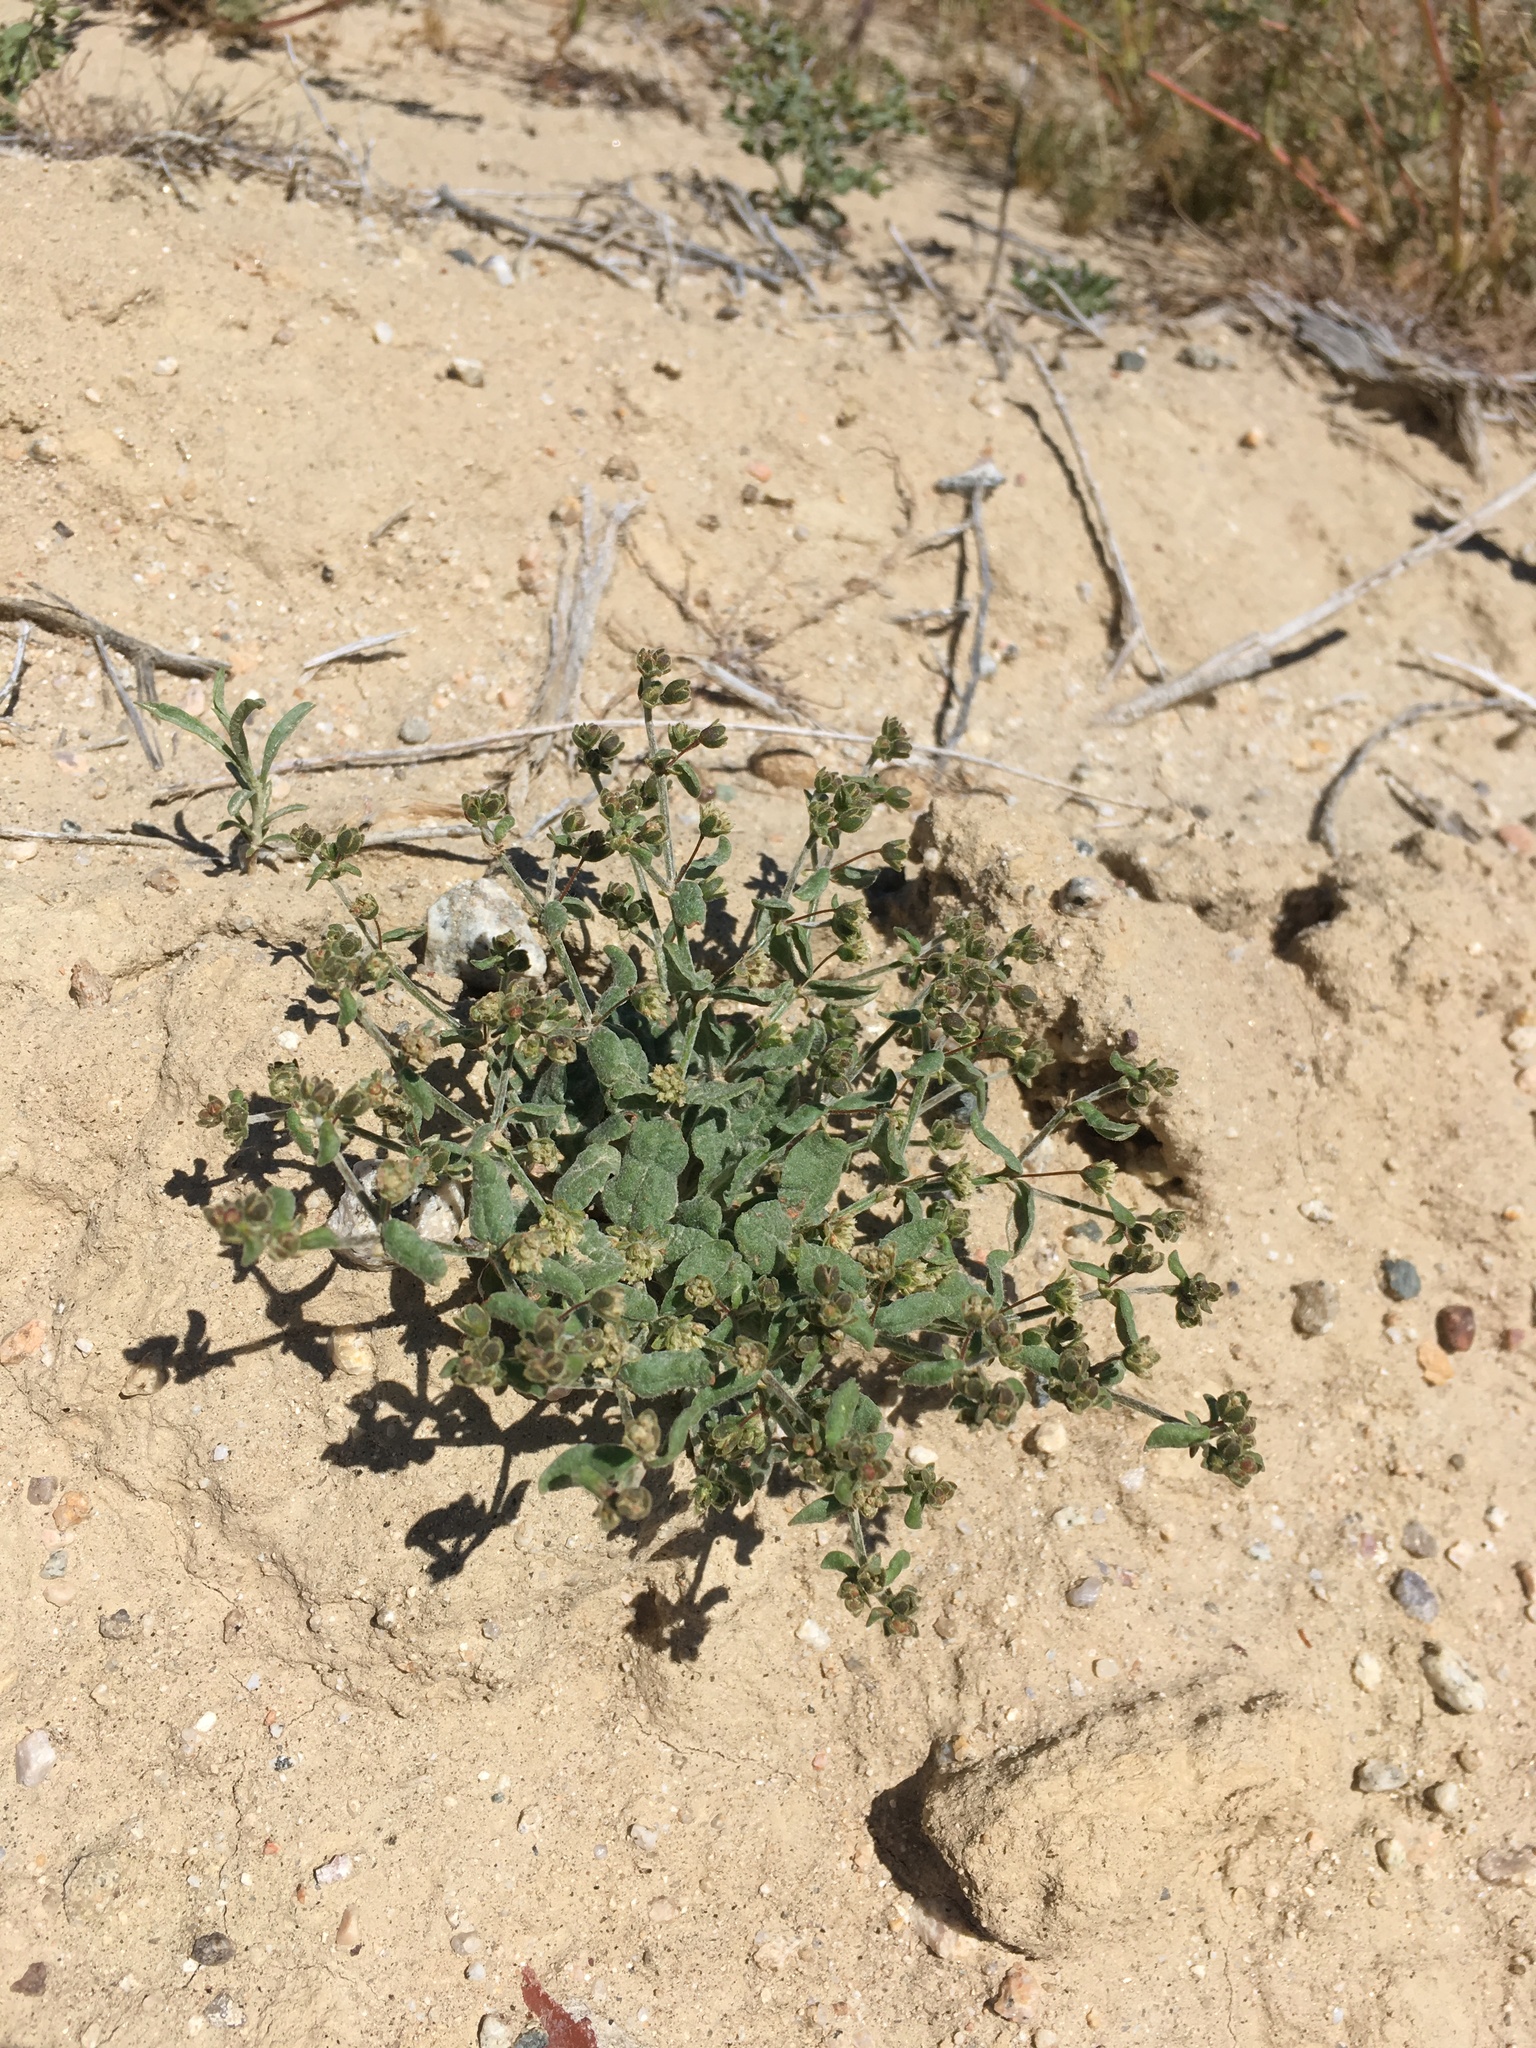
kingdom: Plantae
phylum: Tracheophyta
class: Magnoliopsida
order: Caryophyllales
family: Polygonaceae
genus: Eriogonum
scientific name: Eriogonum viridescens
